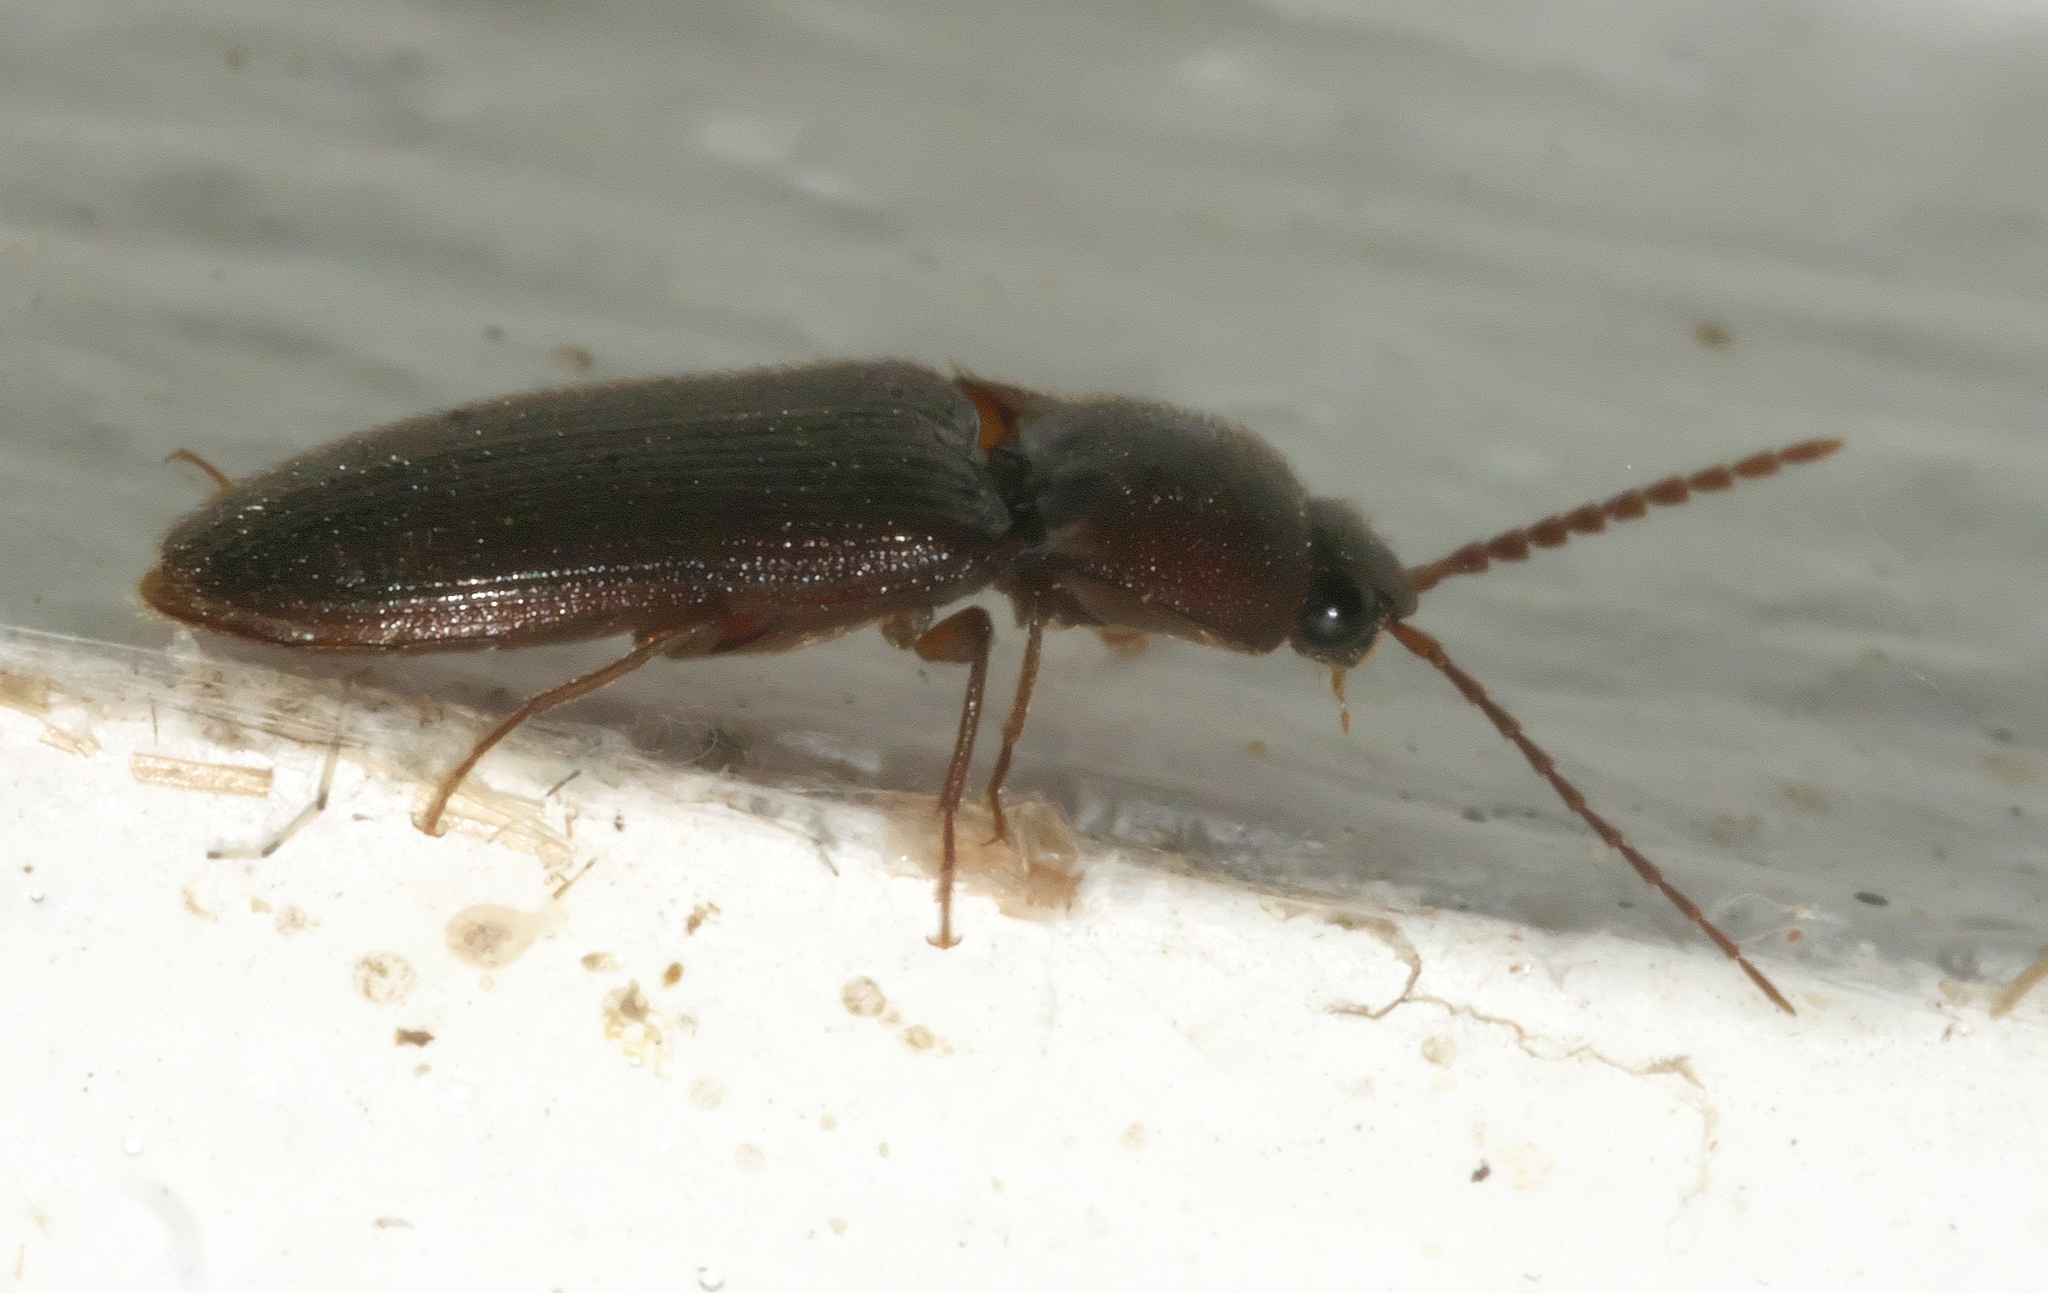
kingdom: Animalia
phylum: Arthropoda
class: Insecta
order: Coleoptera
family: Elateridae
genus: Dipropus
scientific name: Dipropus
